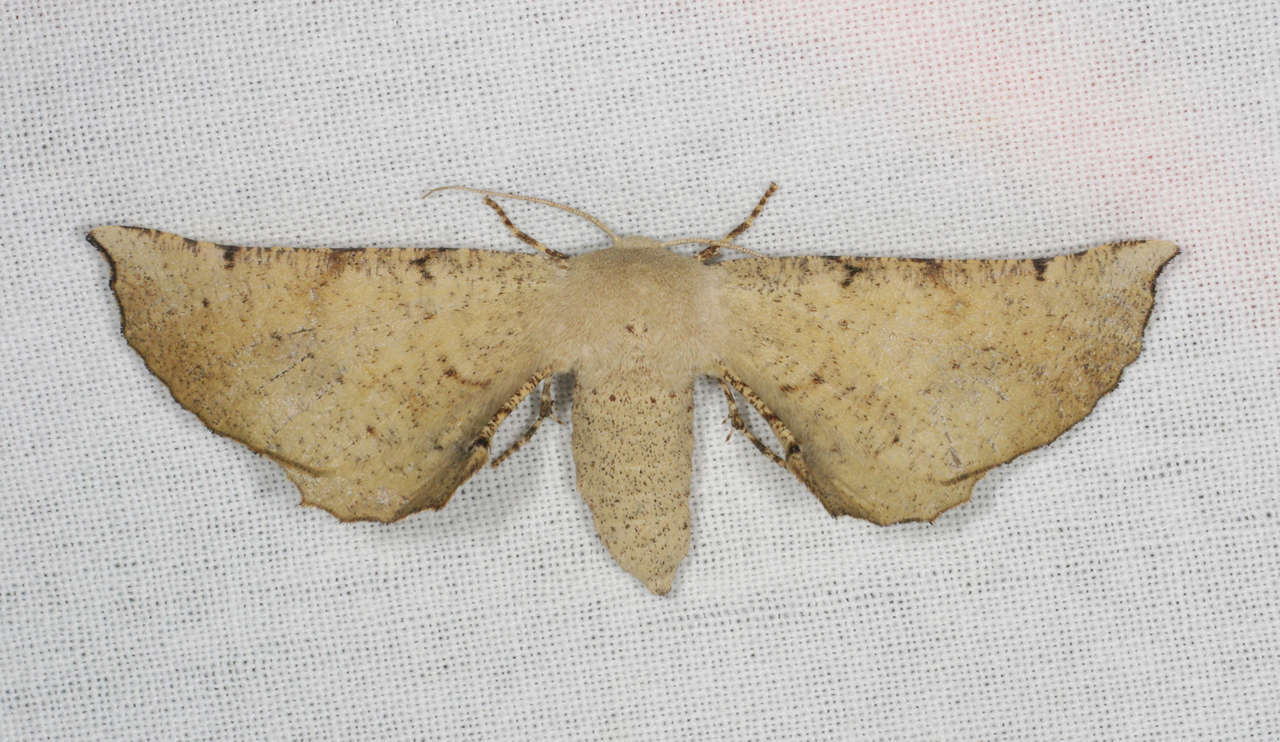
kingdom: Animalia
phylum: Arthropoda
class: Insecta
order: Lepidoptera
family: Geometridae
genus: Circopetes
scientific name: Circopetes obtusata
